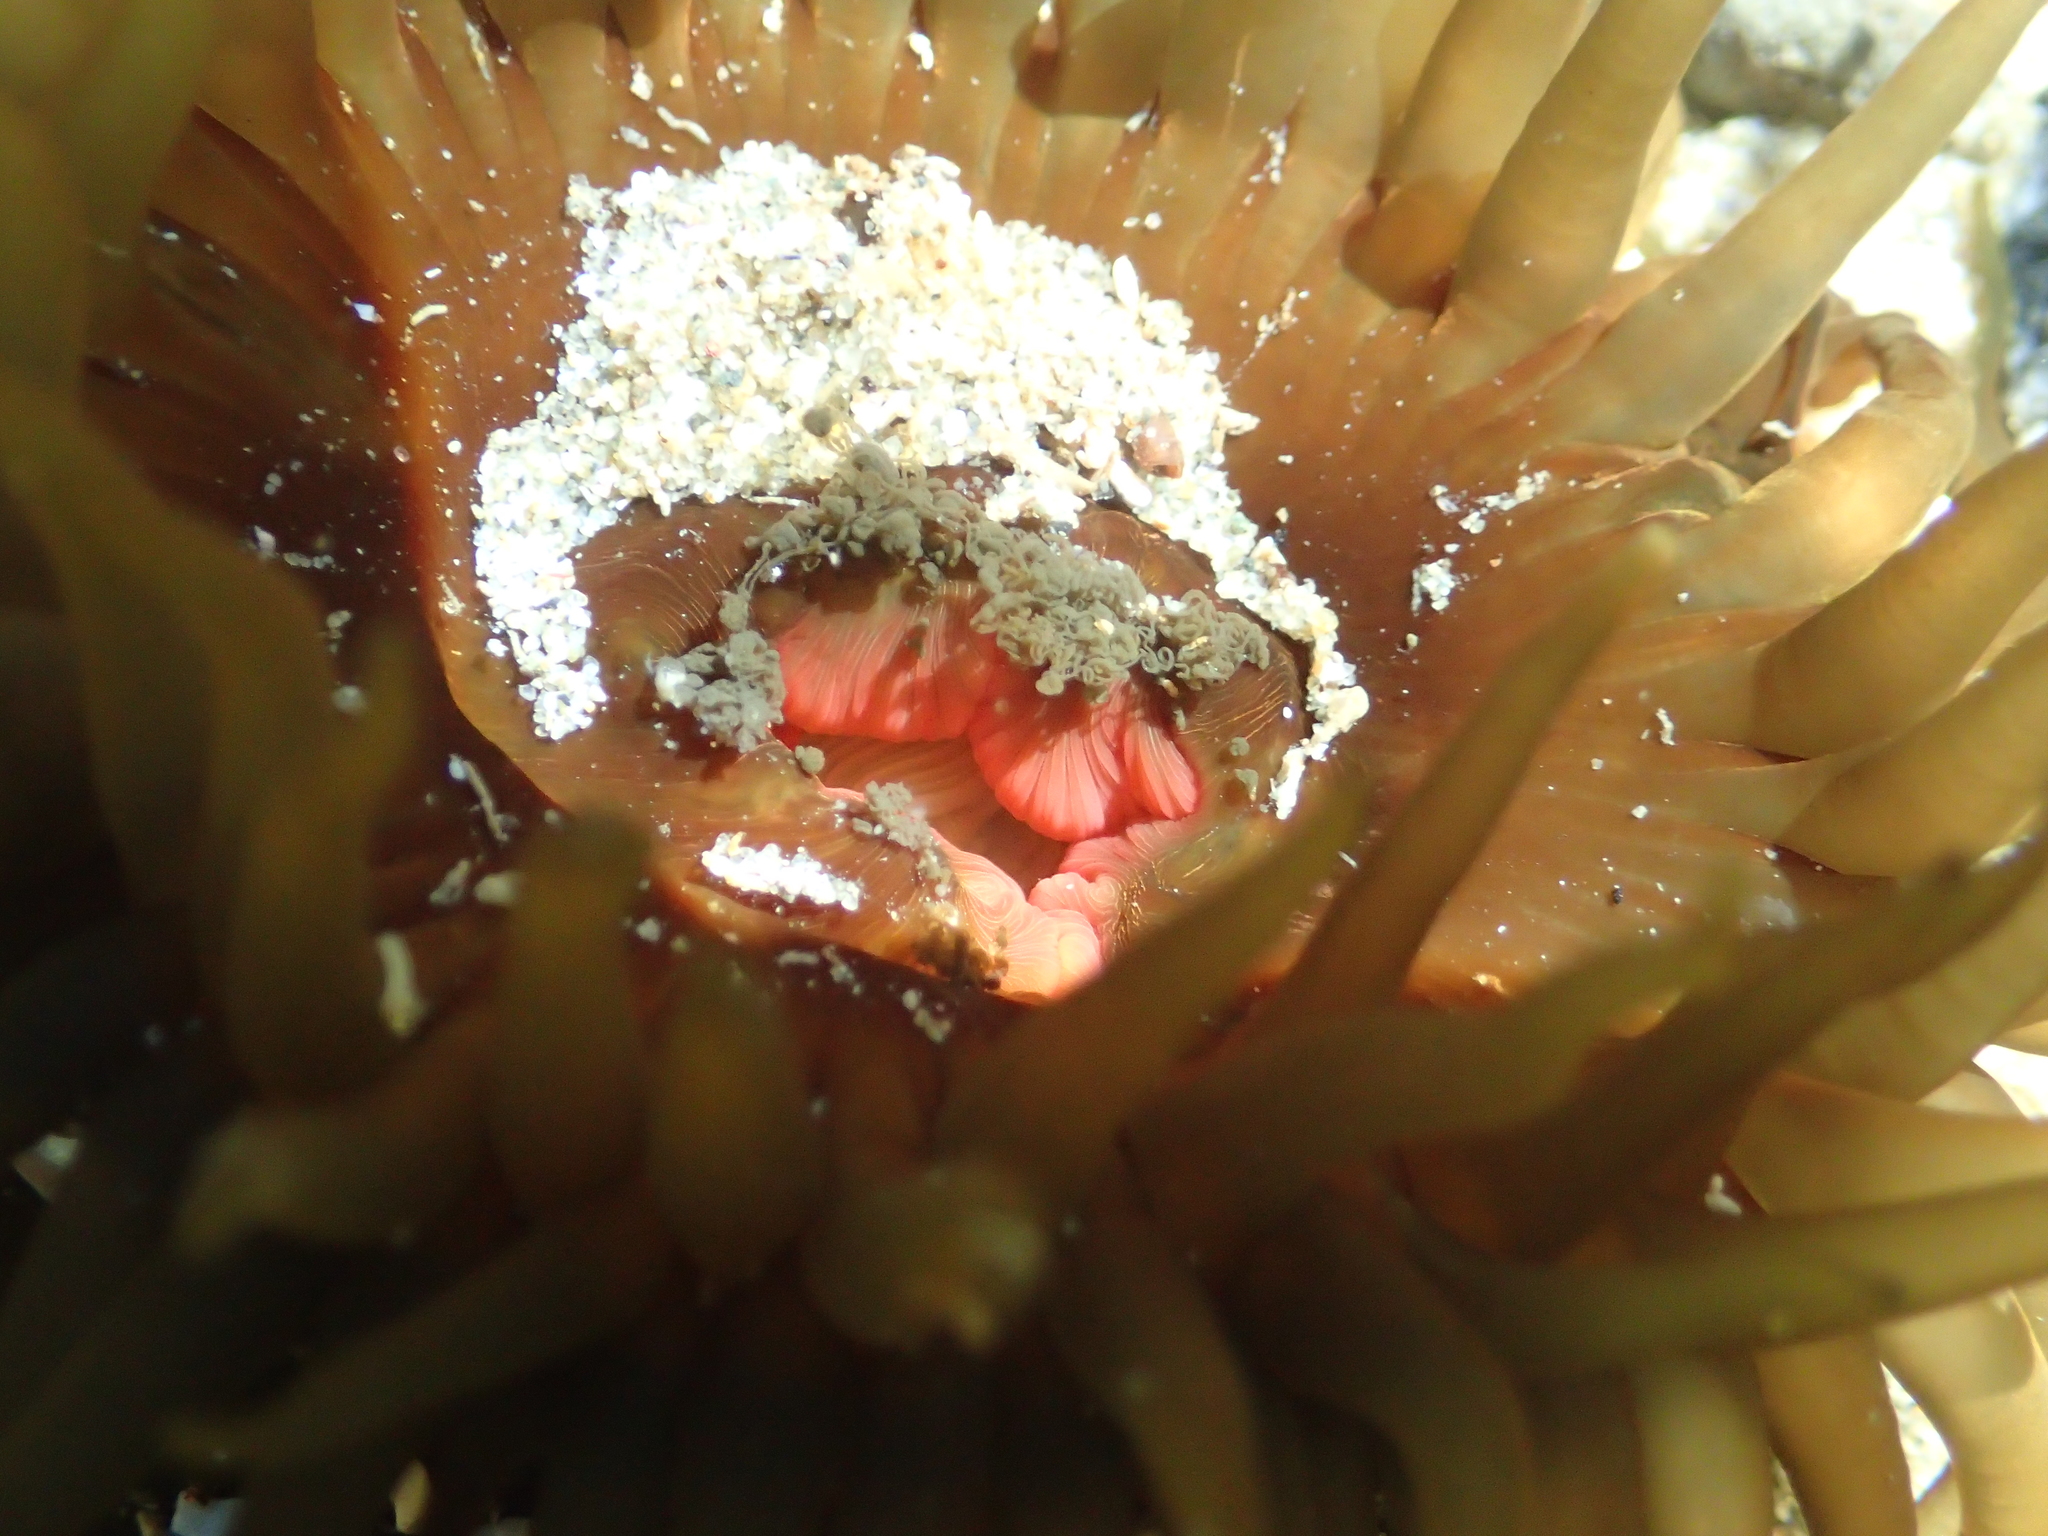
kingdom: Animalia
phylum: Cnidaria
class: Anthozoa
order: Actiniaria
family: Actiniidae
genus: Isactinia
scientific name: Isactinia olivacea
